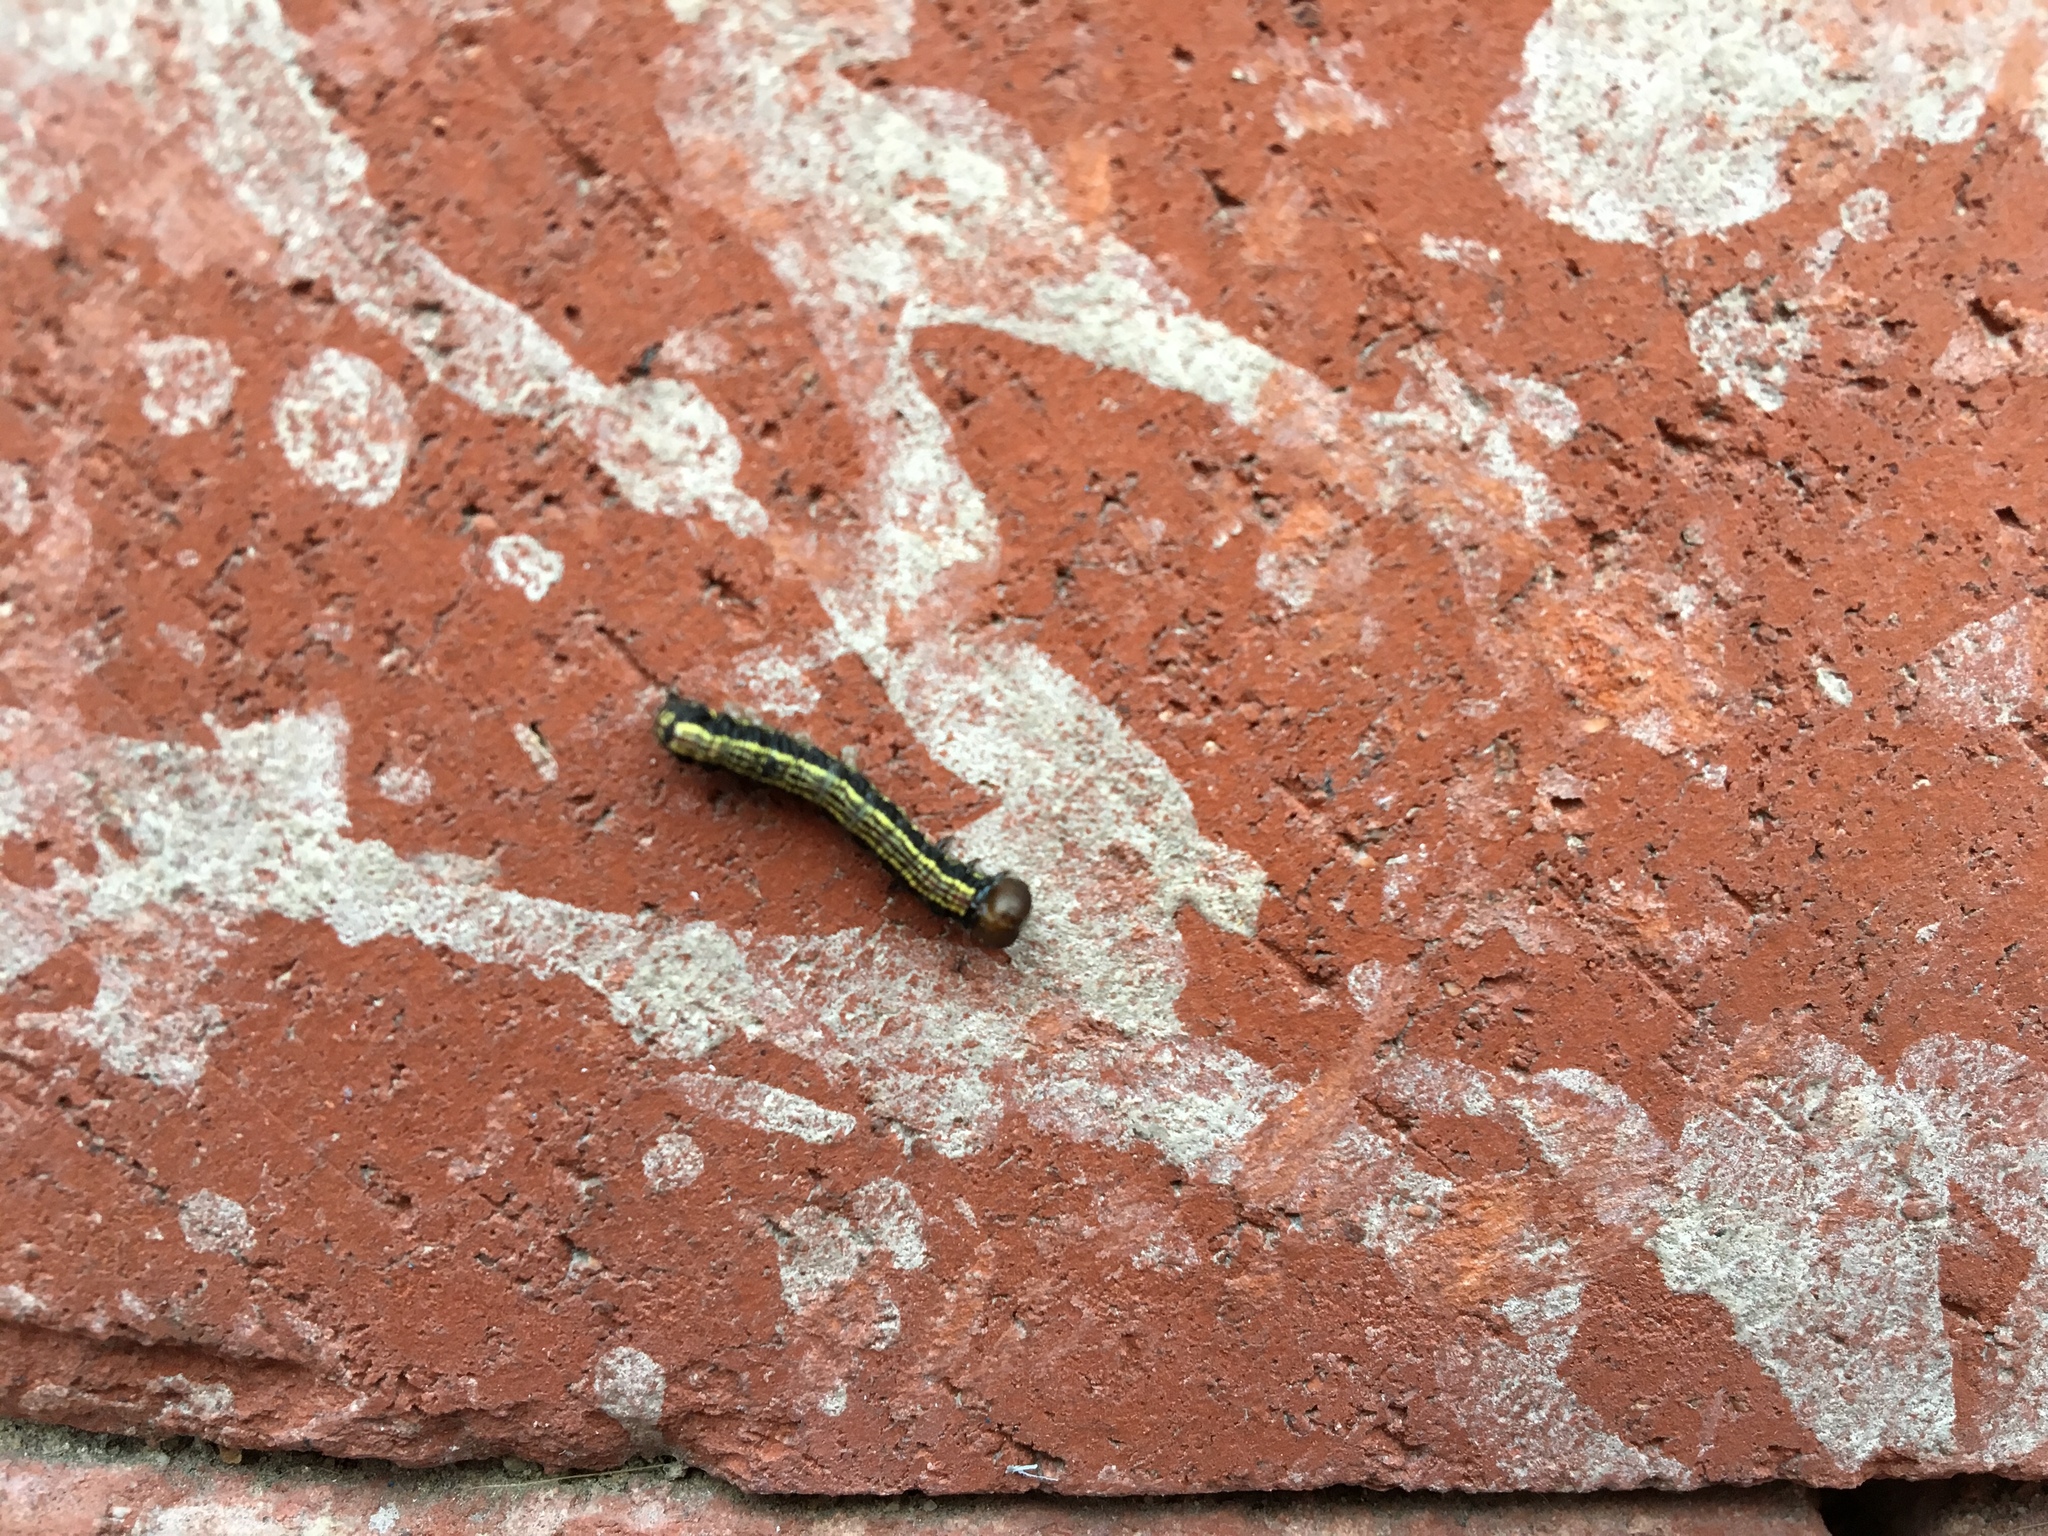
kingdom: Animalia
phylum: Arthropoda
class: Insecta
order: Lepidoptera
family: Notodontidae
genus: Phryganidia
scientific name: Phryganidia californica
